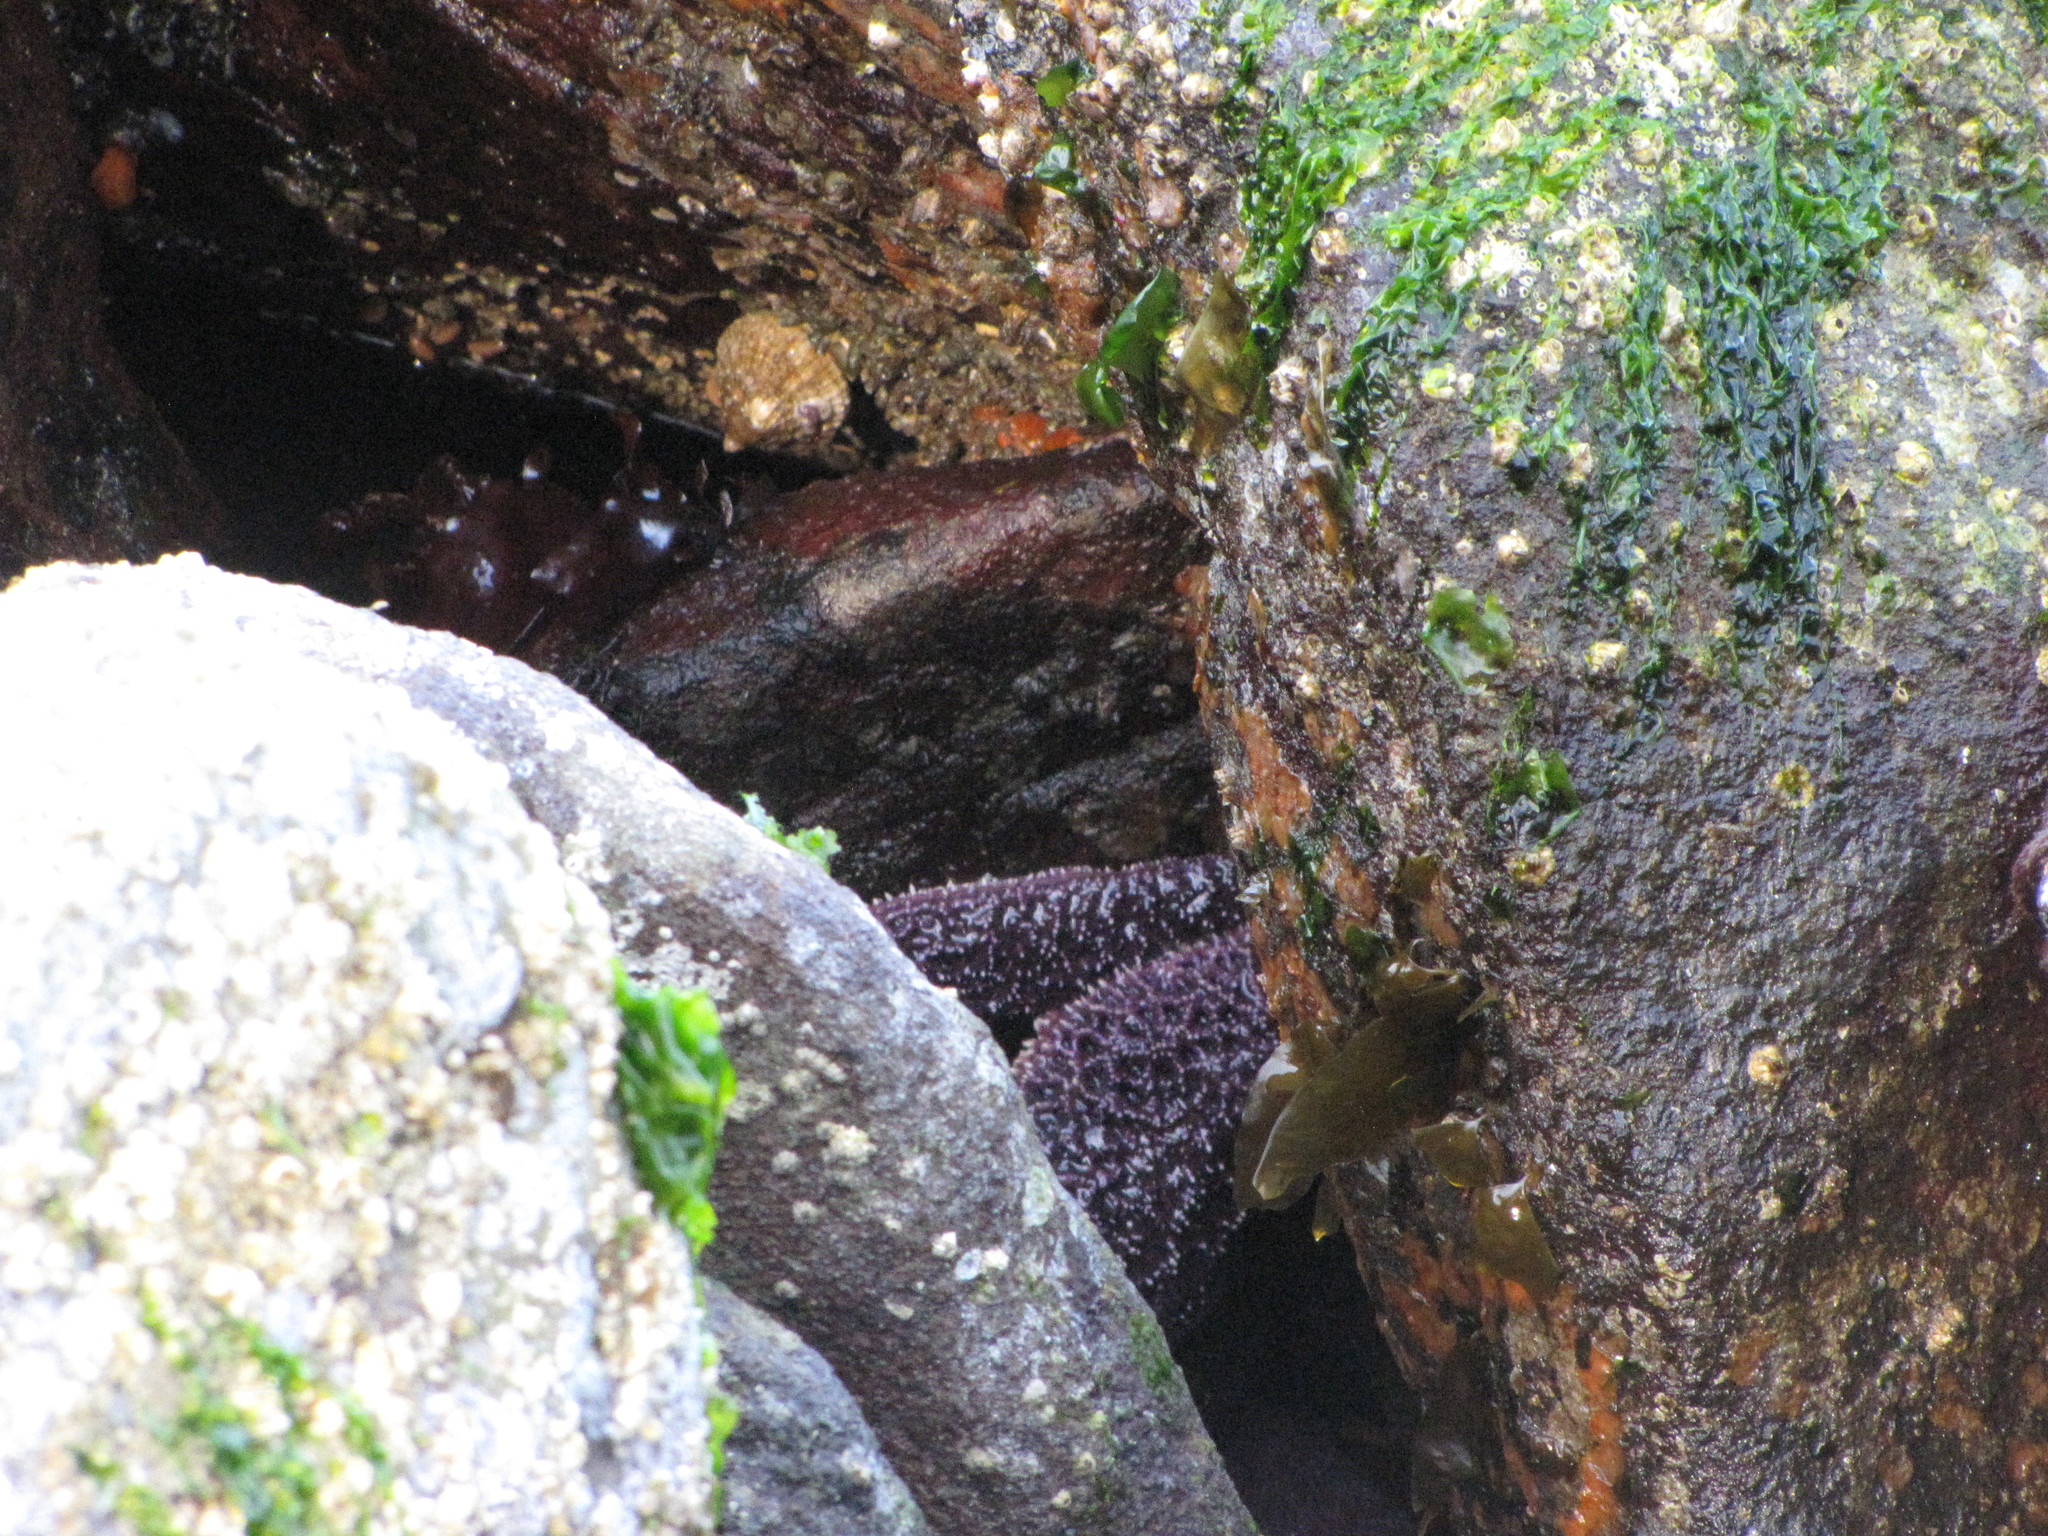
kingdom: Animalia
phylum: Echinodermata
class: Asteroidea
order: Forcipulatida
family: Asteriidae
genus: Pisaster
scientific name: Pisaster ochraceus
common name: Ochre stars
